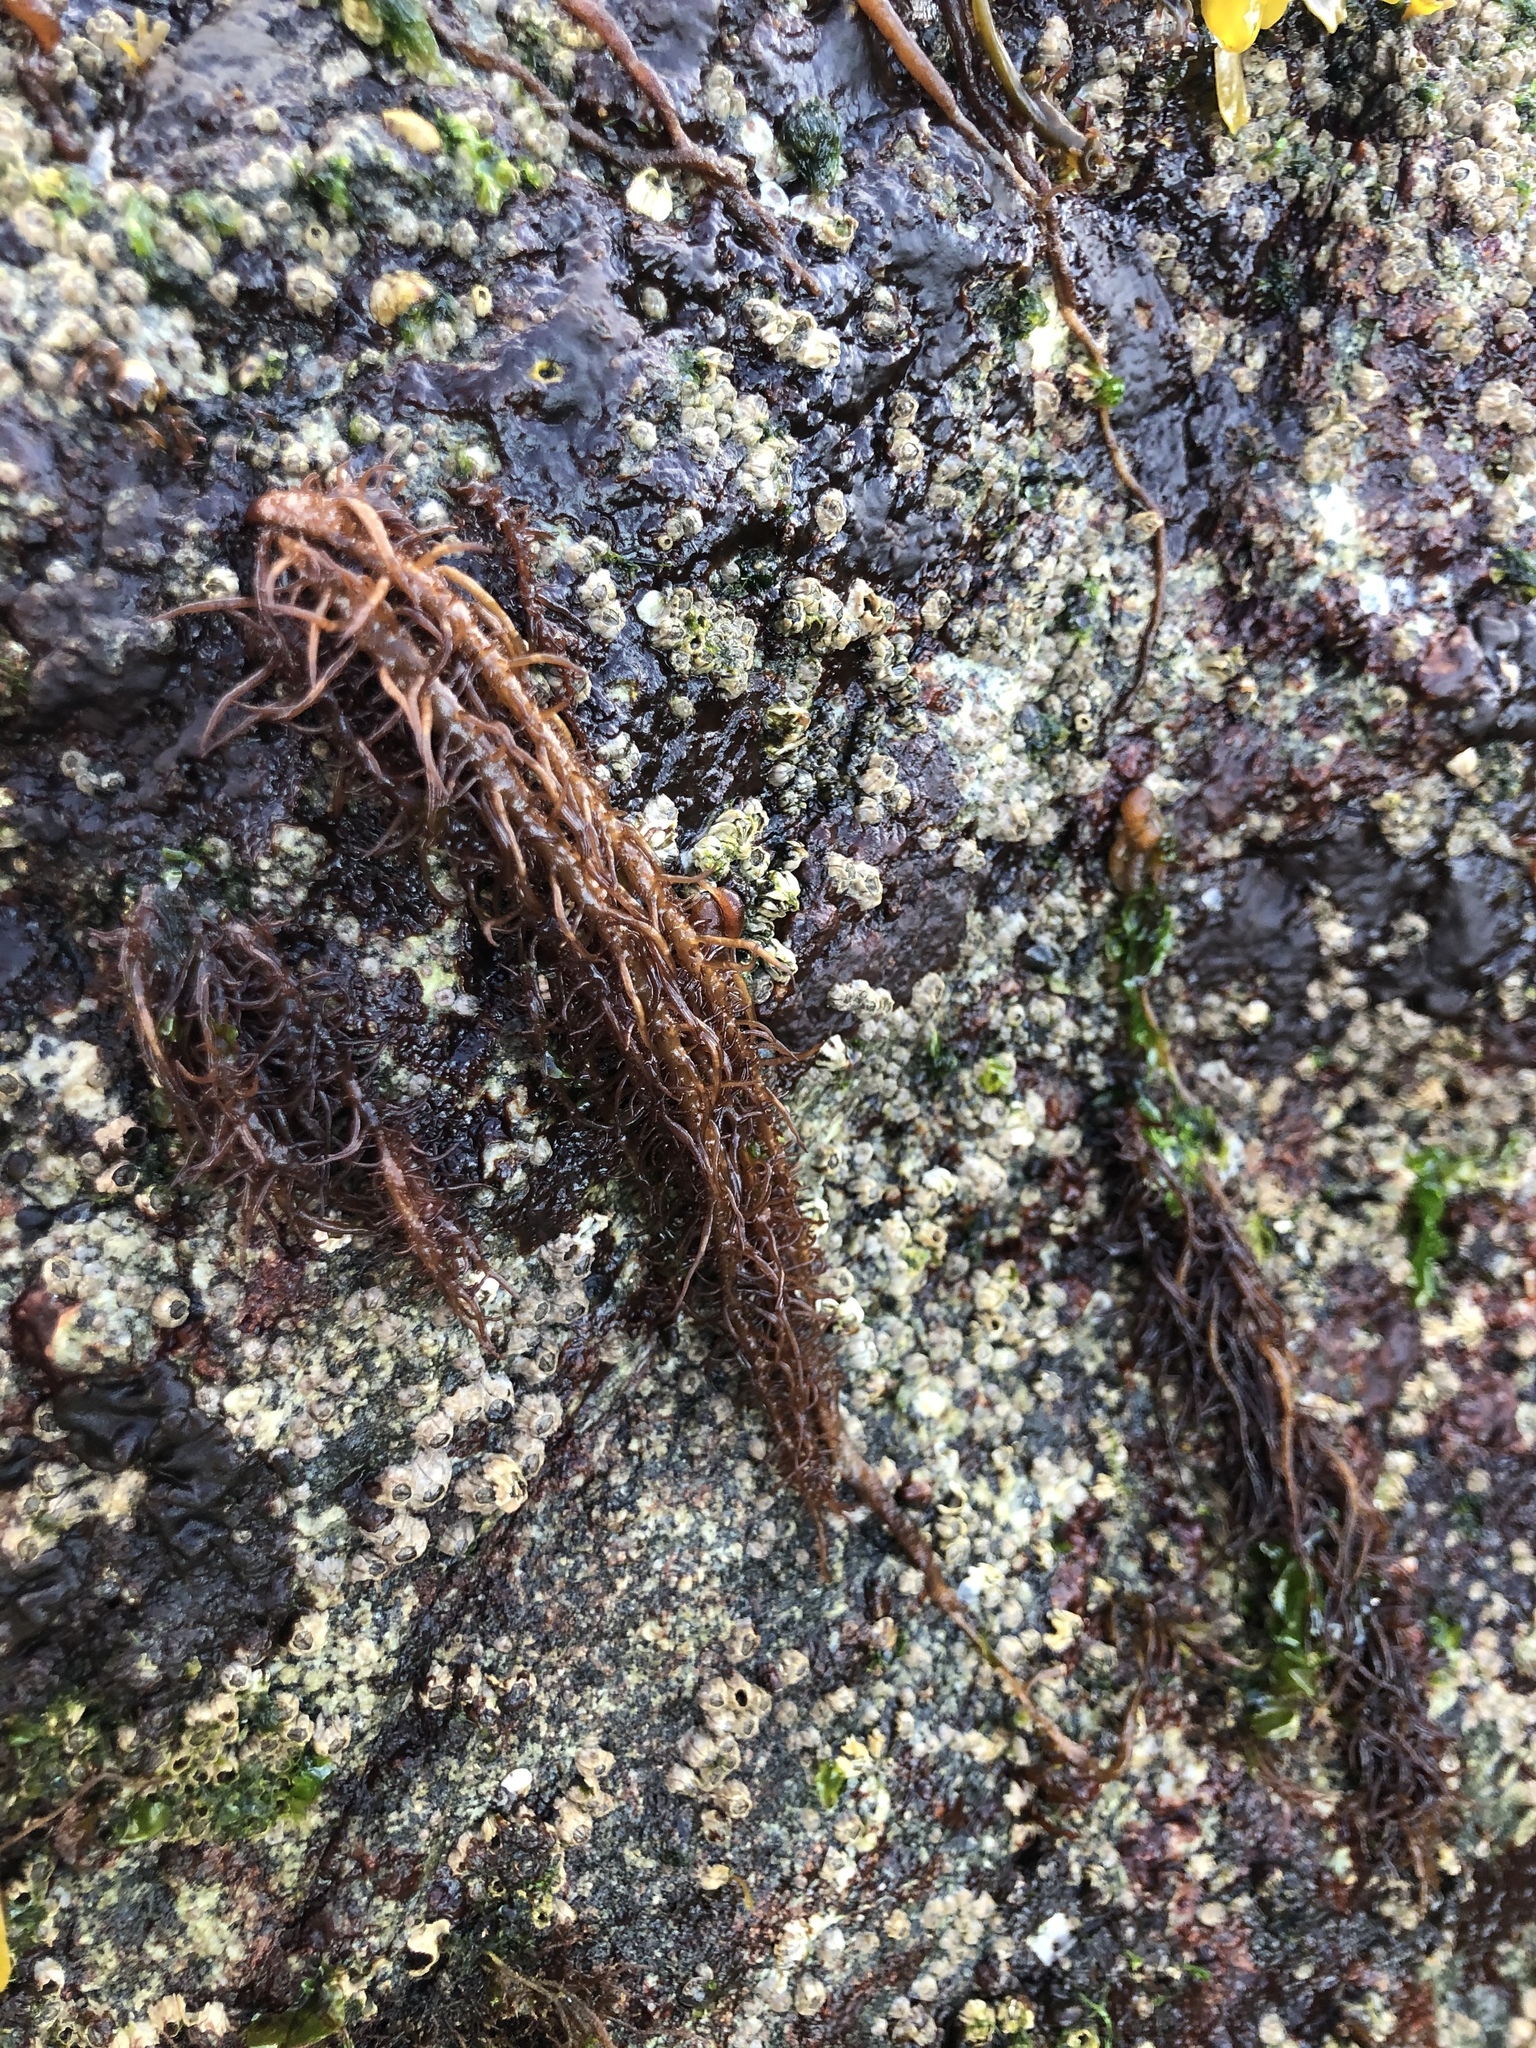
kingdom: Plantae
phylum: Rhodophyta
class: Florideophyceae
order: Nemaliales
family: Liagoraceae
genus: Cumagloia
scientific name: Cumagloia andersonii
